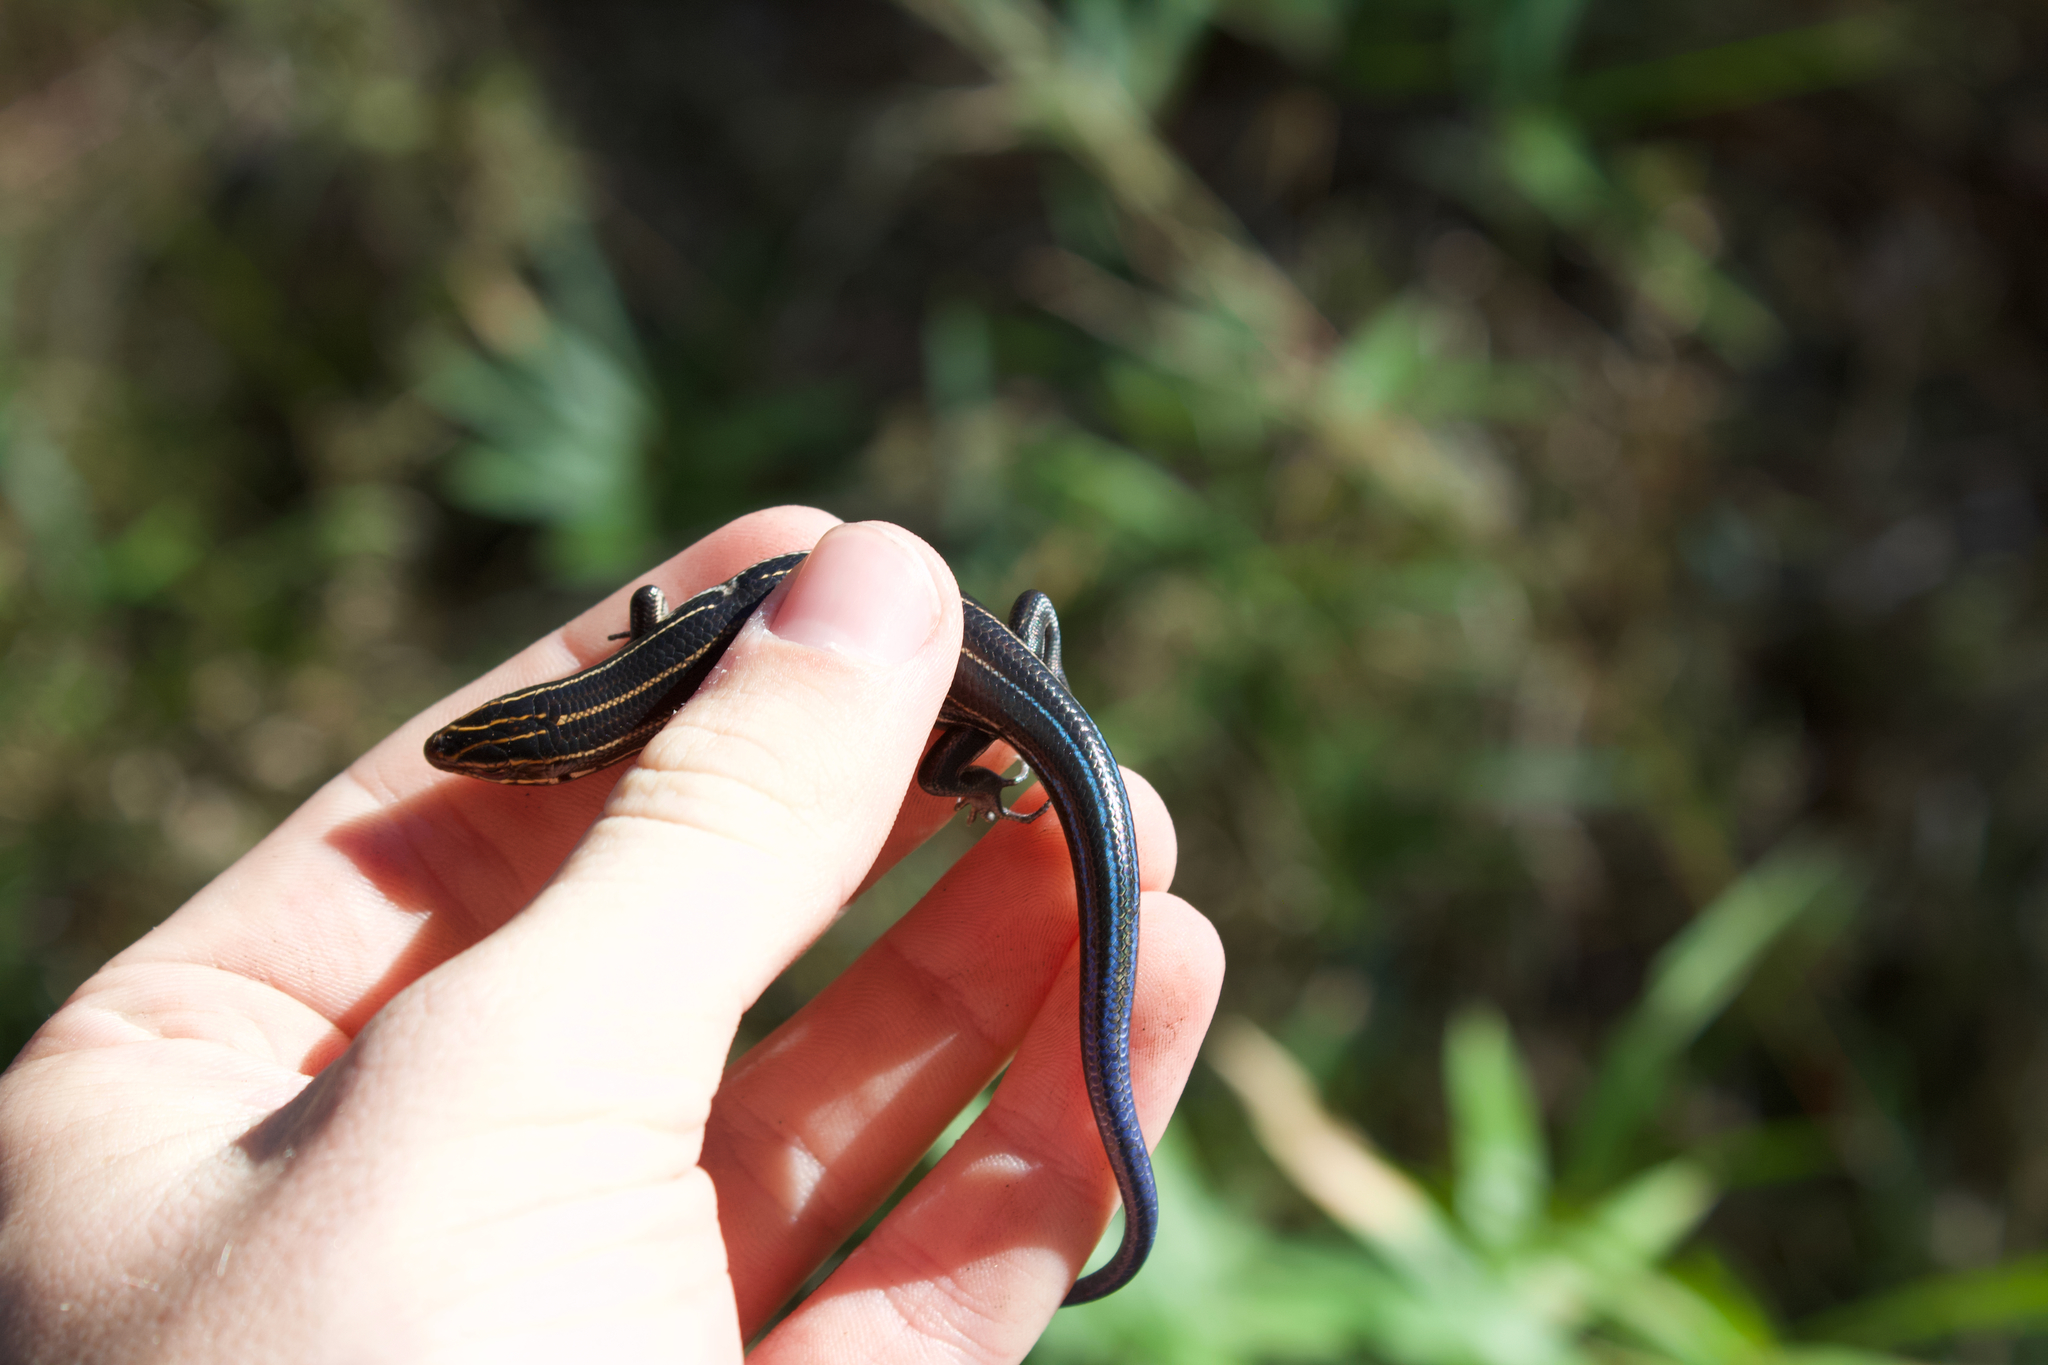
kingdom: Animalia
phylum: Chordata
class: Squamata
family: Scincidae
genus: Plestiodon
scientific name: Plestiodon inexpectatus
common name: Southeastern five-lined skink
